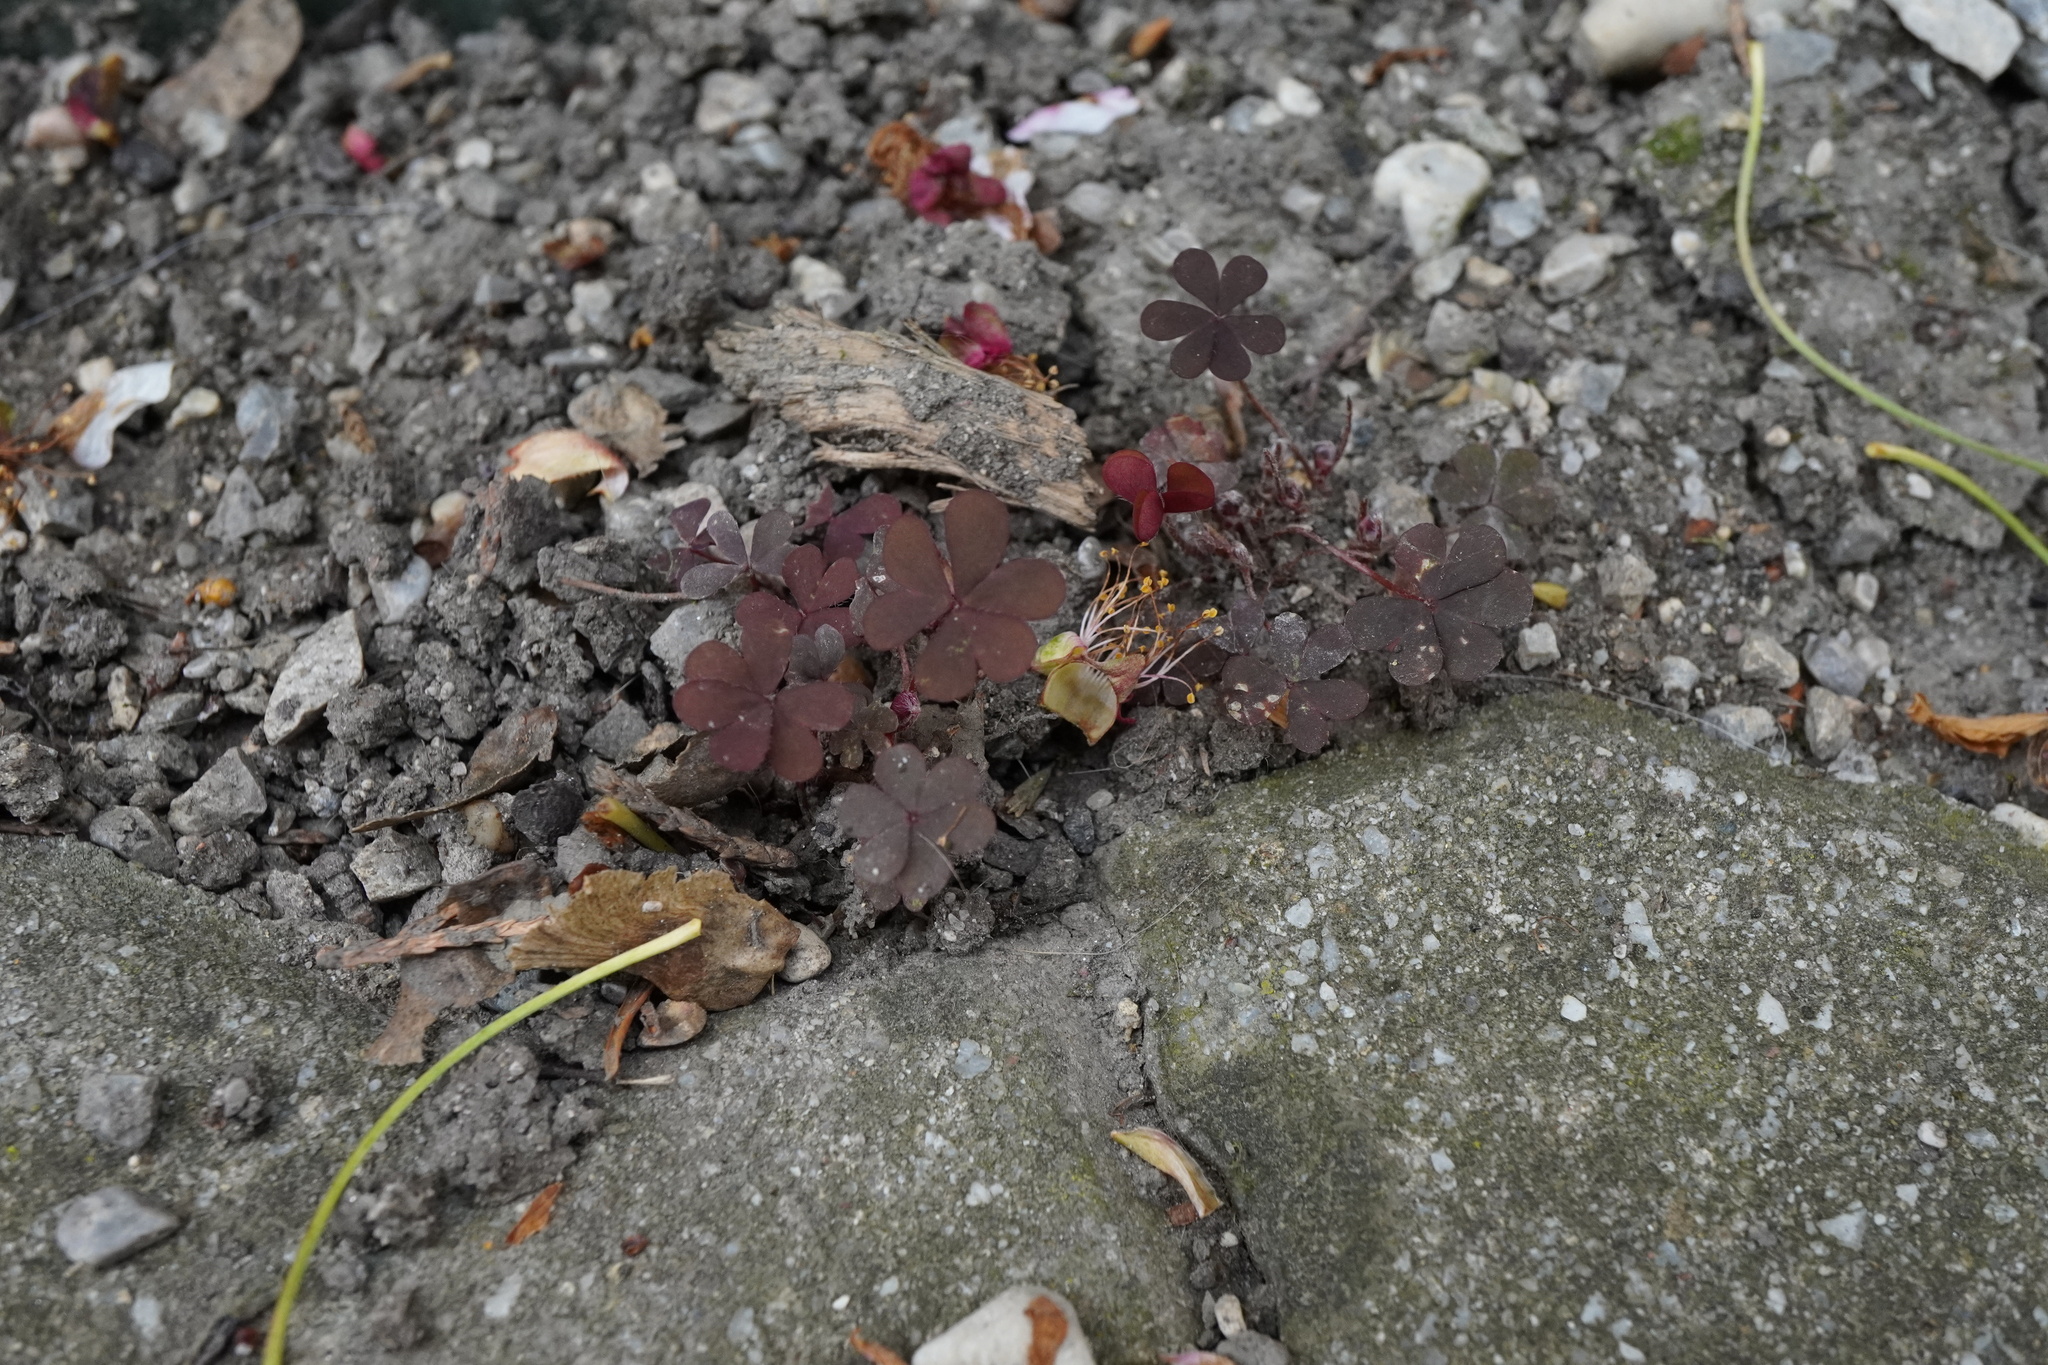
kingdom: Plantae
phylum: Tracheophyta
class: Magnoliopsida
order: Oxalidales
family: Oxalidaceae
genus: Oxalis
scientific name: Oxalis corniculata
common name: Procumbent yellow-sorrel
